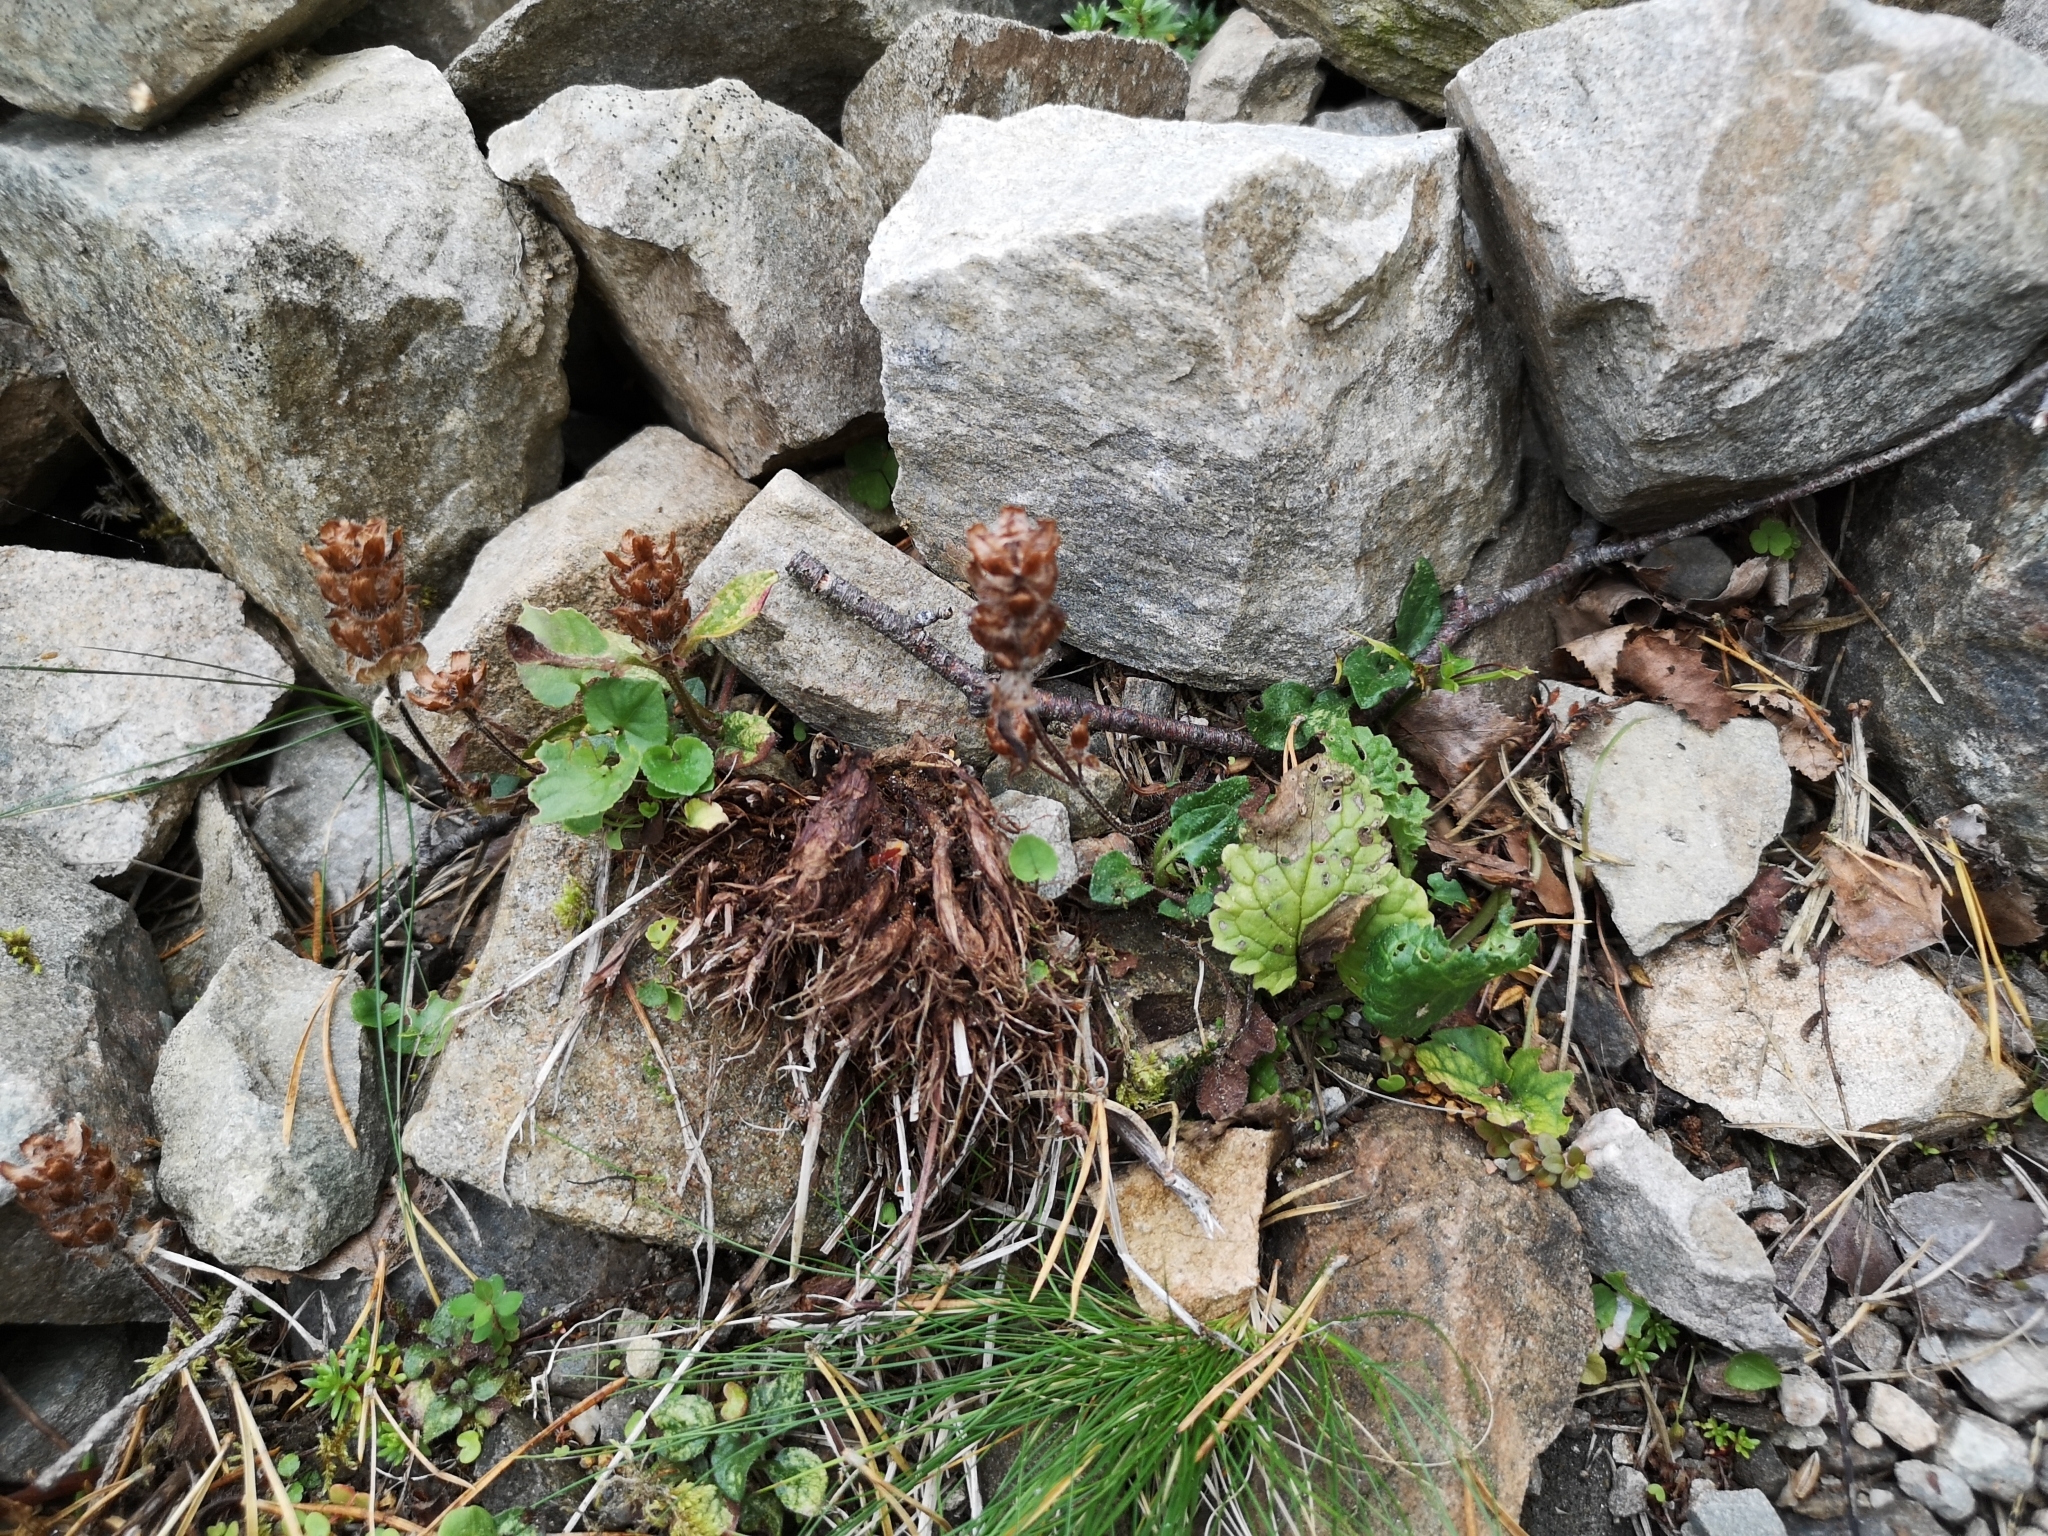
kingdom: Plantae
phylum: Tracheophyta
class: Magnoliopsida
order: Lamiales
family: Lamiaceae
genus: Prunella
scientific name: Prunella vulgaris
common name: Heal-all
